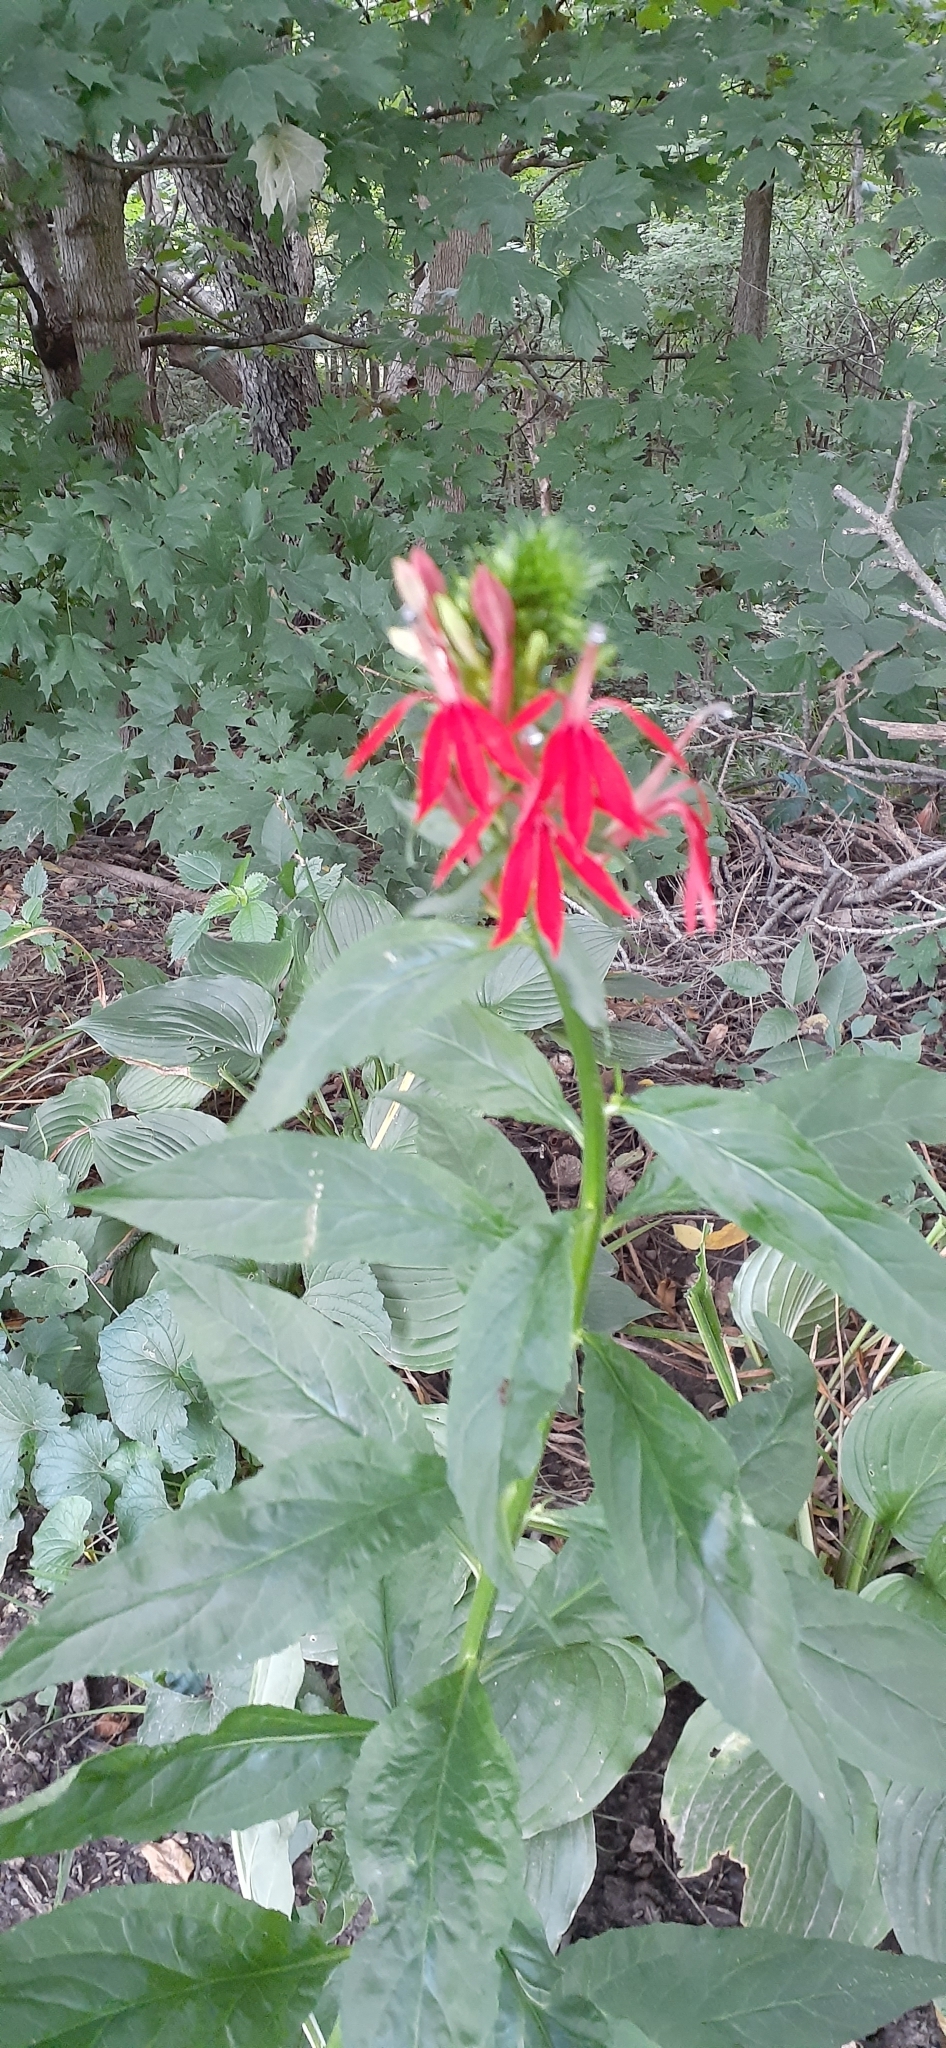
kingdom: Plantae
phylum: Tracheophyta
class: Magnoliopsida
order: Asterales
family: Campanulaceae
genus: Lobelia
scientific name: Lobelia cardinalis
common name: Cardinal flower
